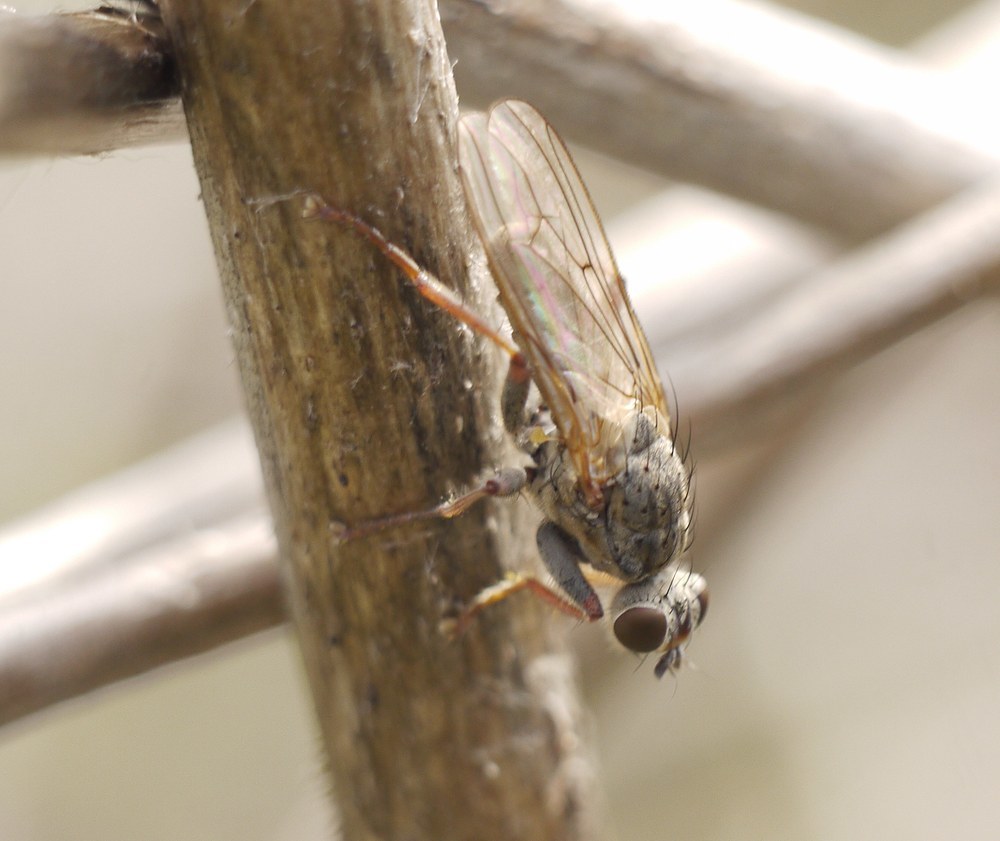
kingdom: Animalia
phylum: Arthropoda
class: Insecta
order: Diptera
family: Scathophagidae
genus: Scathophaga
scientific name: Scathophaga stercoraria
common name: Yellow dung fly
